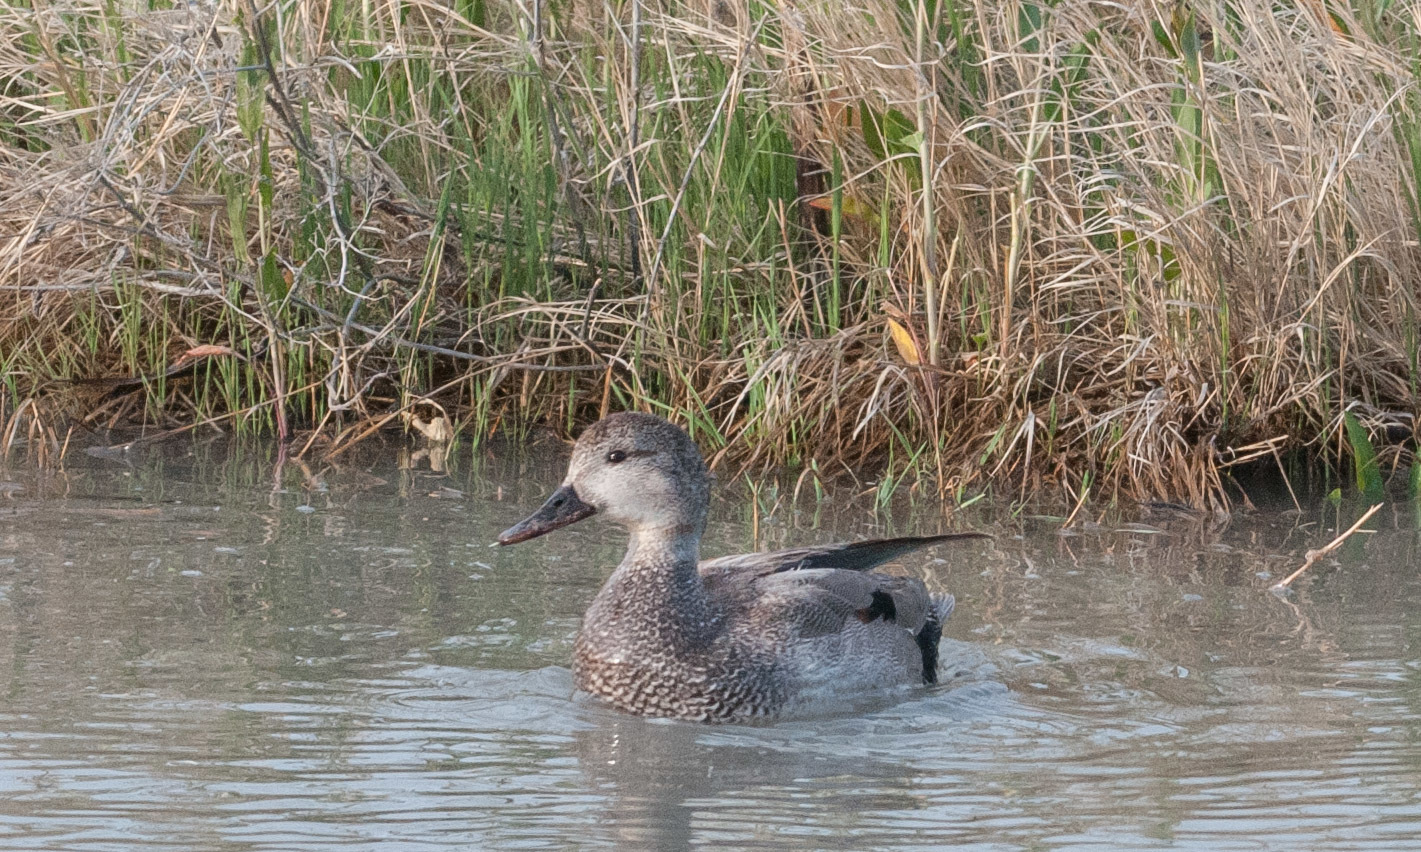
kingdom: Animalia
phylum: Chordata
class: Aves
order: Anseriformes
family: Anatidae
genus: Mareca
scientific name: Mareca strepera
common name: Gadwall
